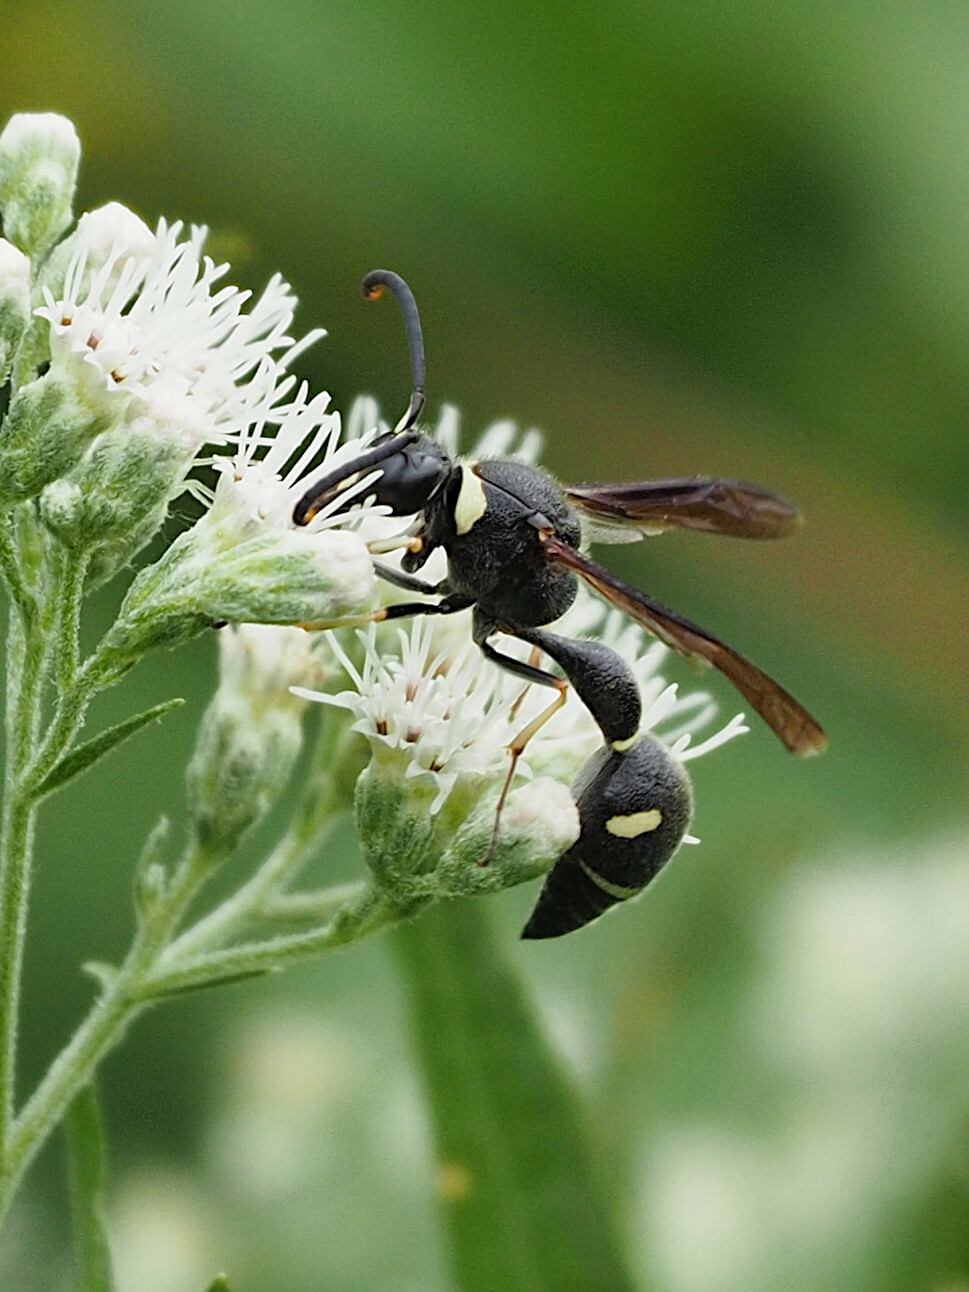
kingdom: Animalia
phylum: Arthropoda
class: Insecta
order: Hymenoptera
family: Vespidae
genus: Eumenes
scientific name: Eumenes fraternus
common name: Fraternal potter wasp
